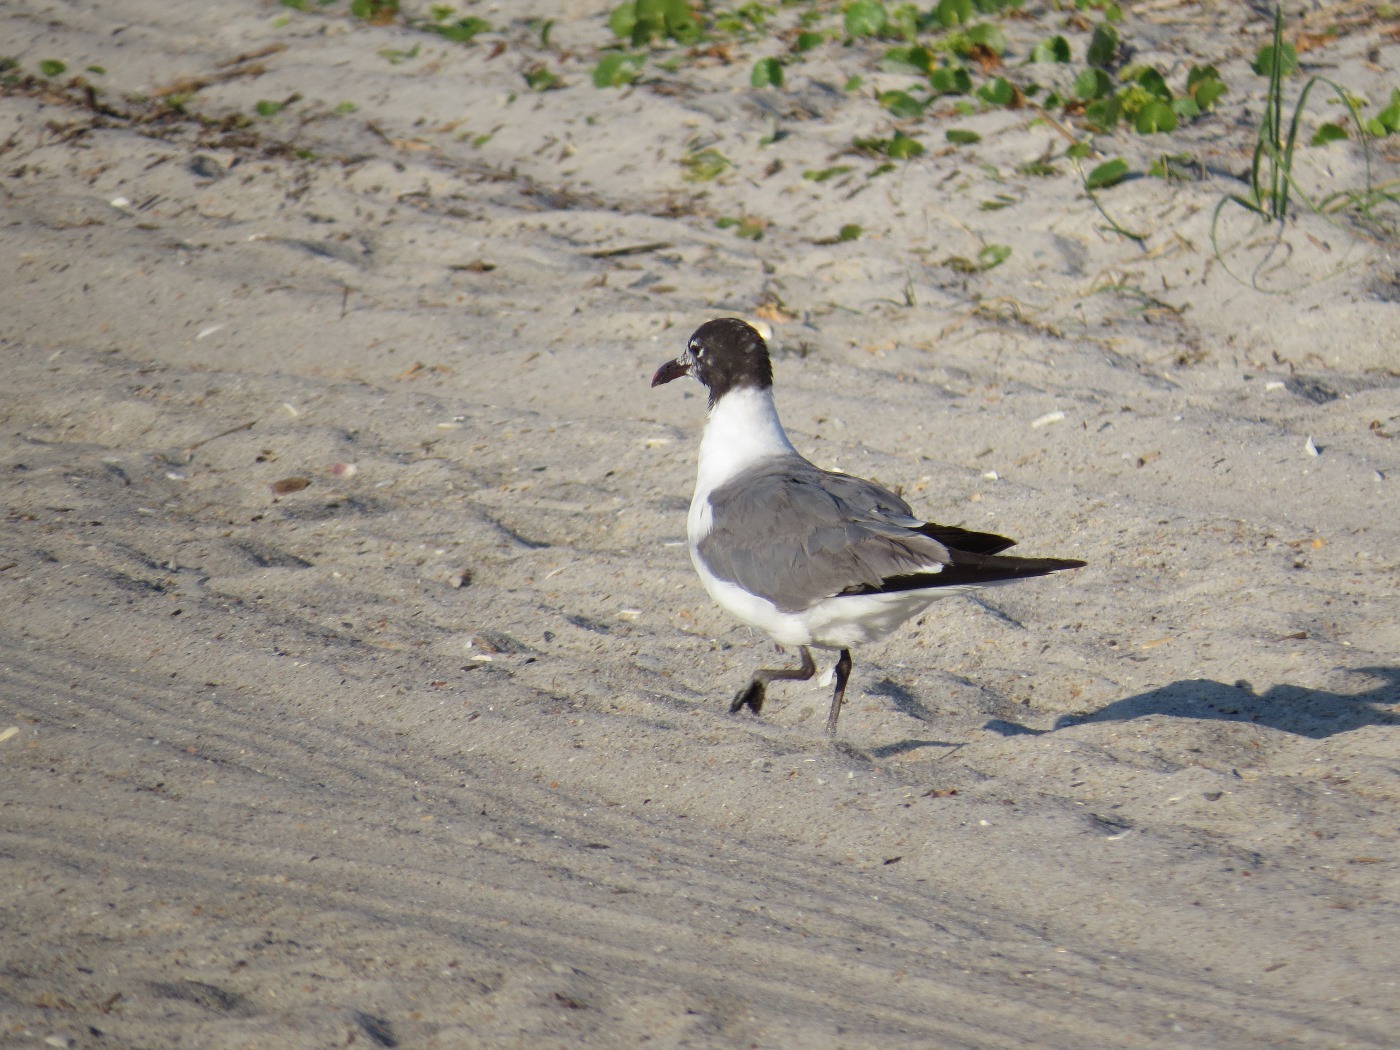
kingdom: Animalia
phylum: Chordata
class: Aves
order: Charadriiformes
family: Laridae
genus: Leucophaeus
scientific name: Leucophaeus atricilla
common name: Laughing gull
